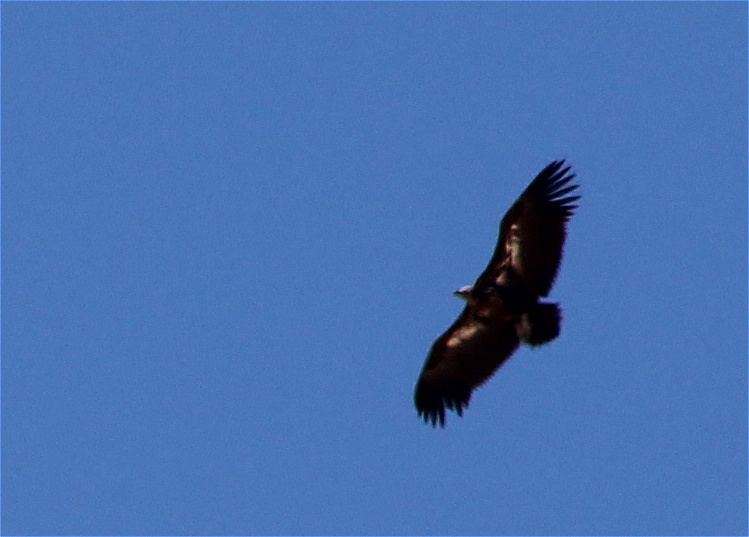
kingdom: Animalia
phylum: Chordata
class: Aves
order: Accipitriformes
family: Accipitridae
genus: Torgos
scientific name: Torgos tracheliotos
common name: Lappet-faced vulture
